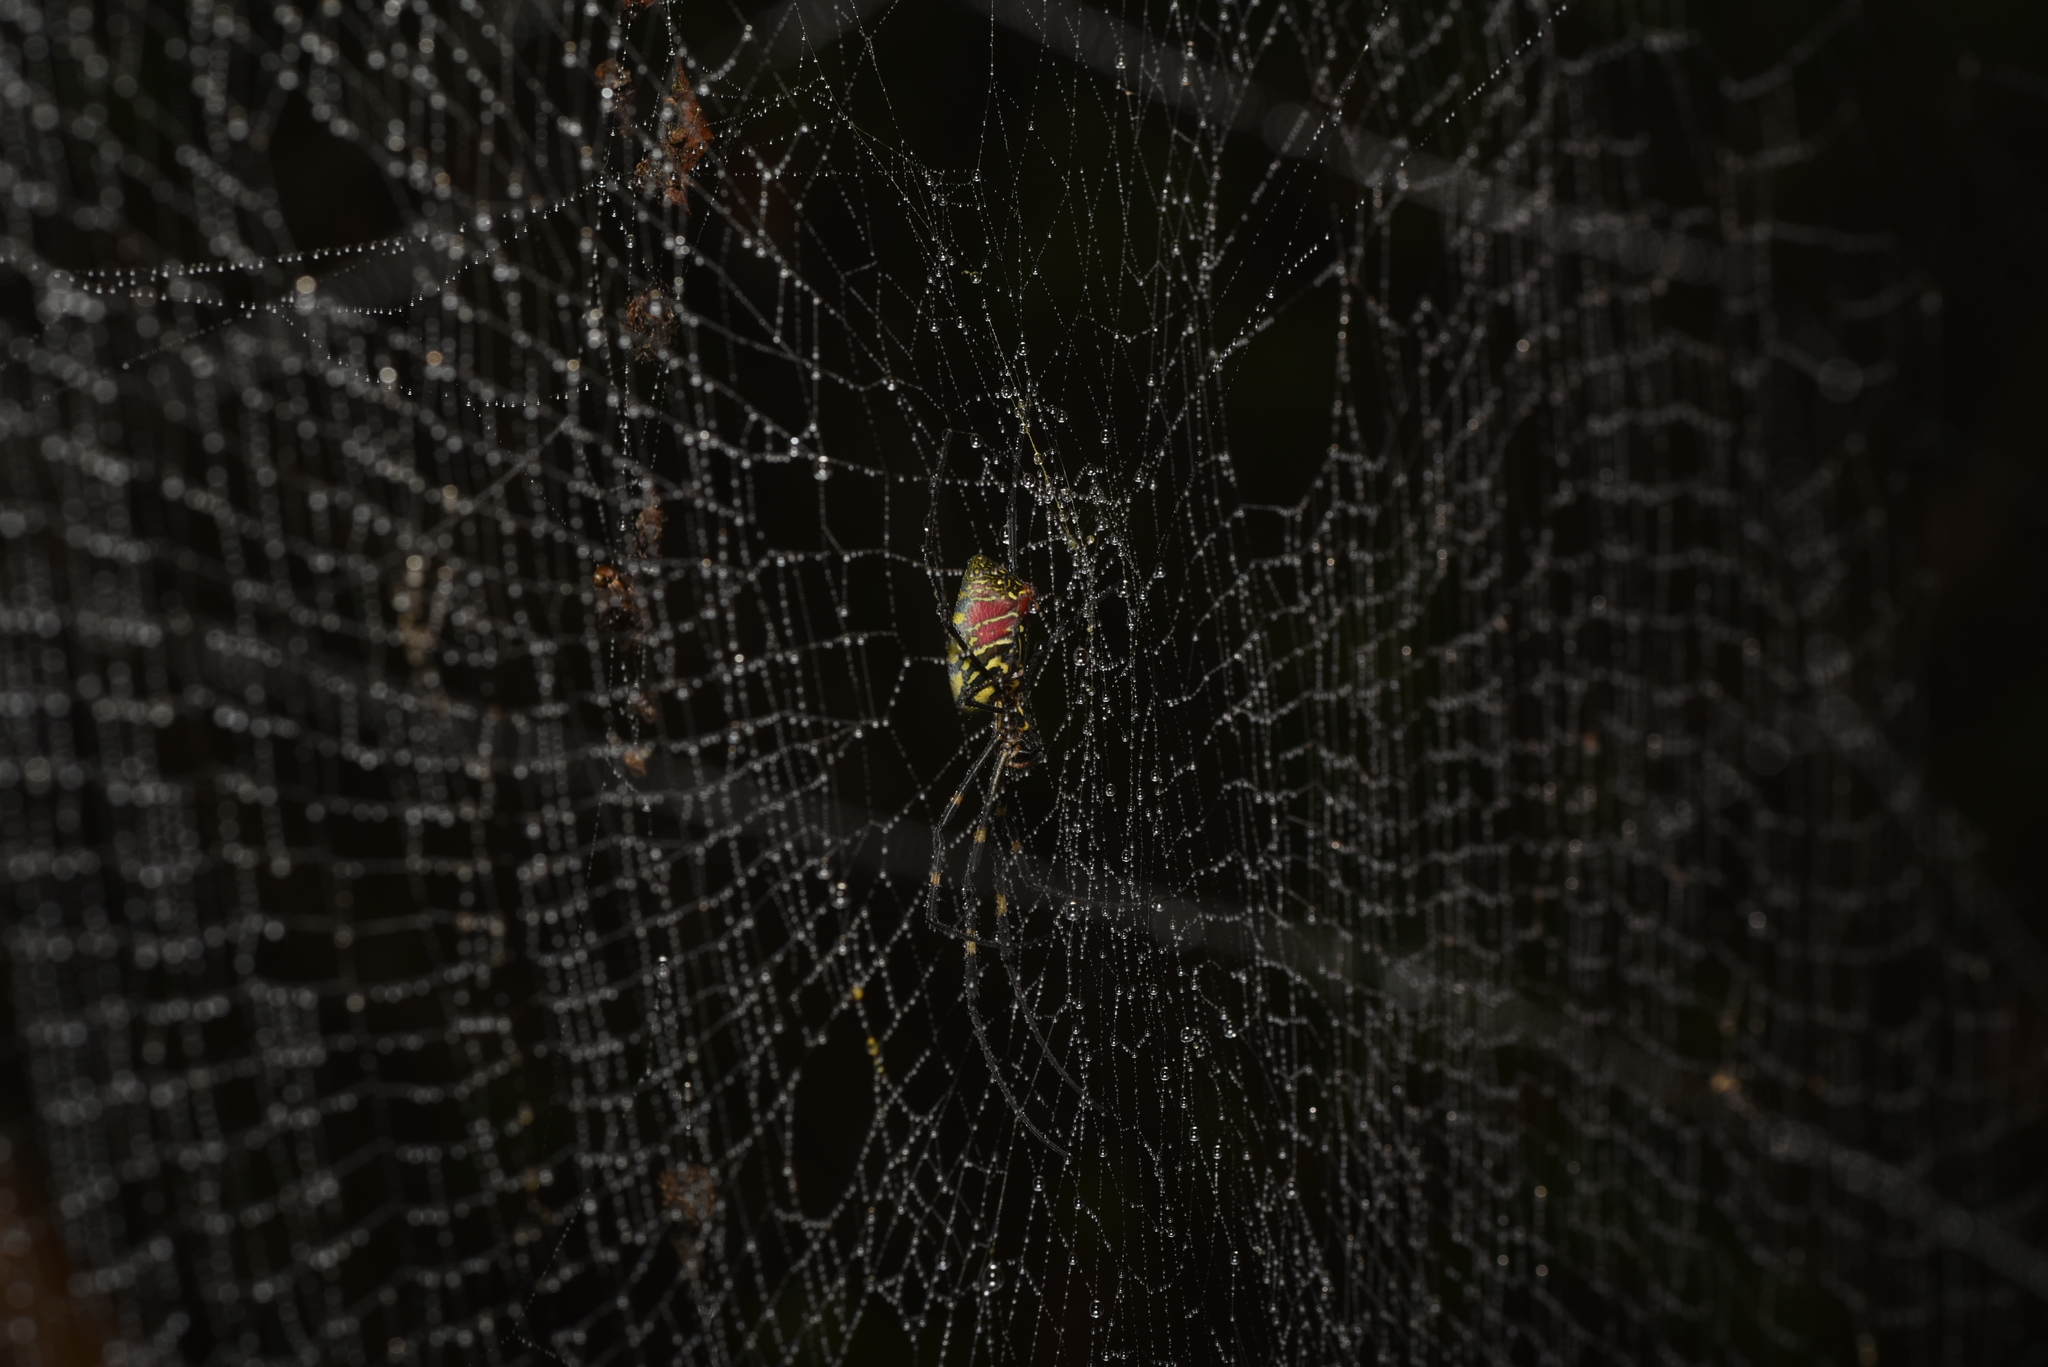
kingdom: Animalia
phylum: Arthropoda
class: Arachnida
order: Araneae
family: Araneidae
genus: Trichonephila
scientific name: Trichonephila clavata
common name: Jorō spider
